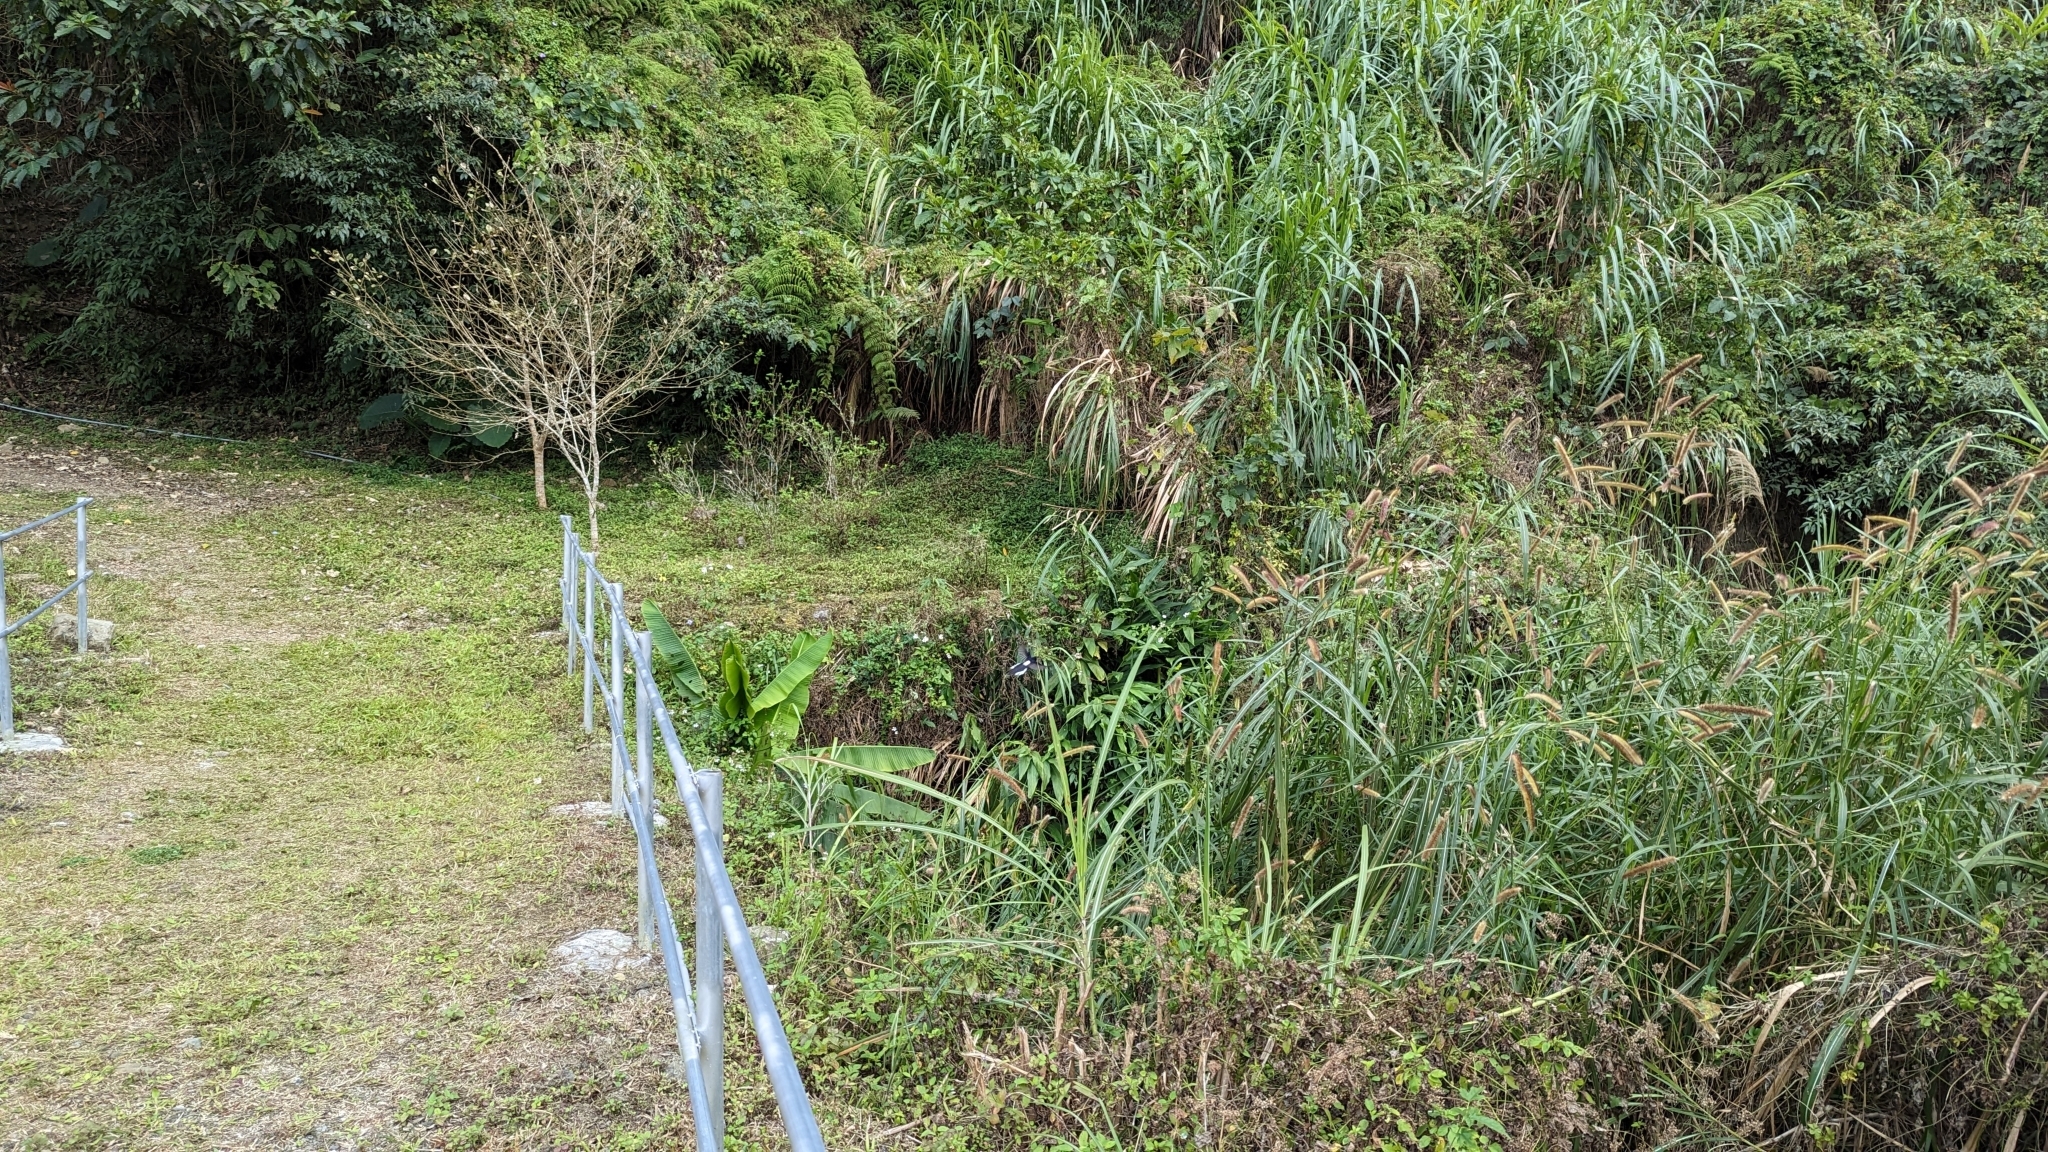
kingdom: Animalia
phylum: Chordata
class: Aves
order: Passeriformes
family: Corvidae
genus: Pica
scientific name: Pica serica
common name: Oriental magpie
